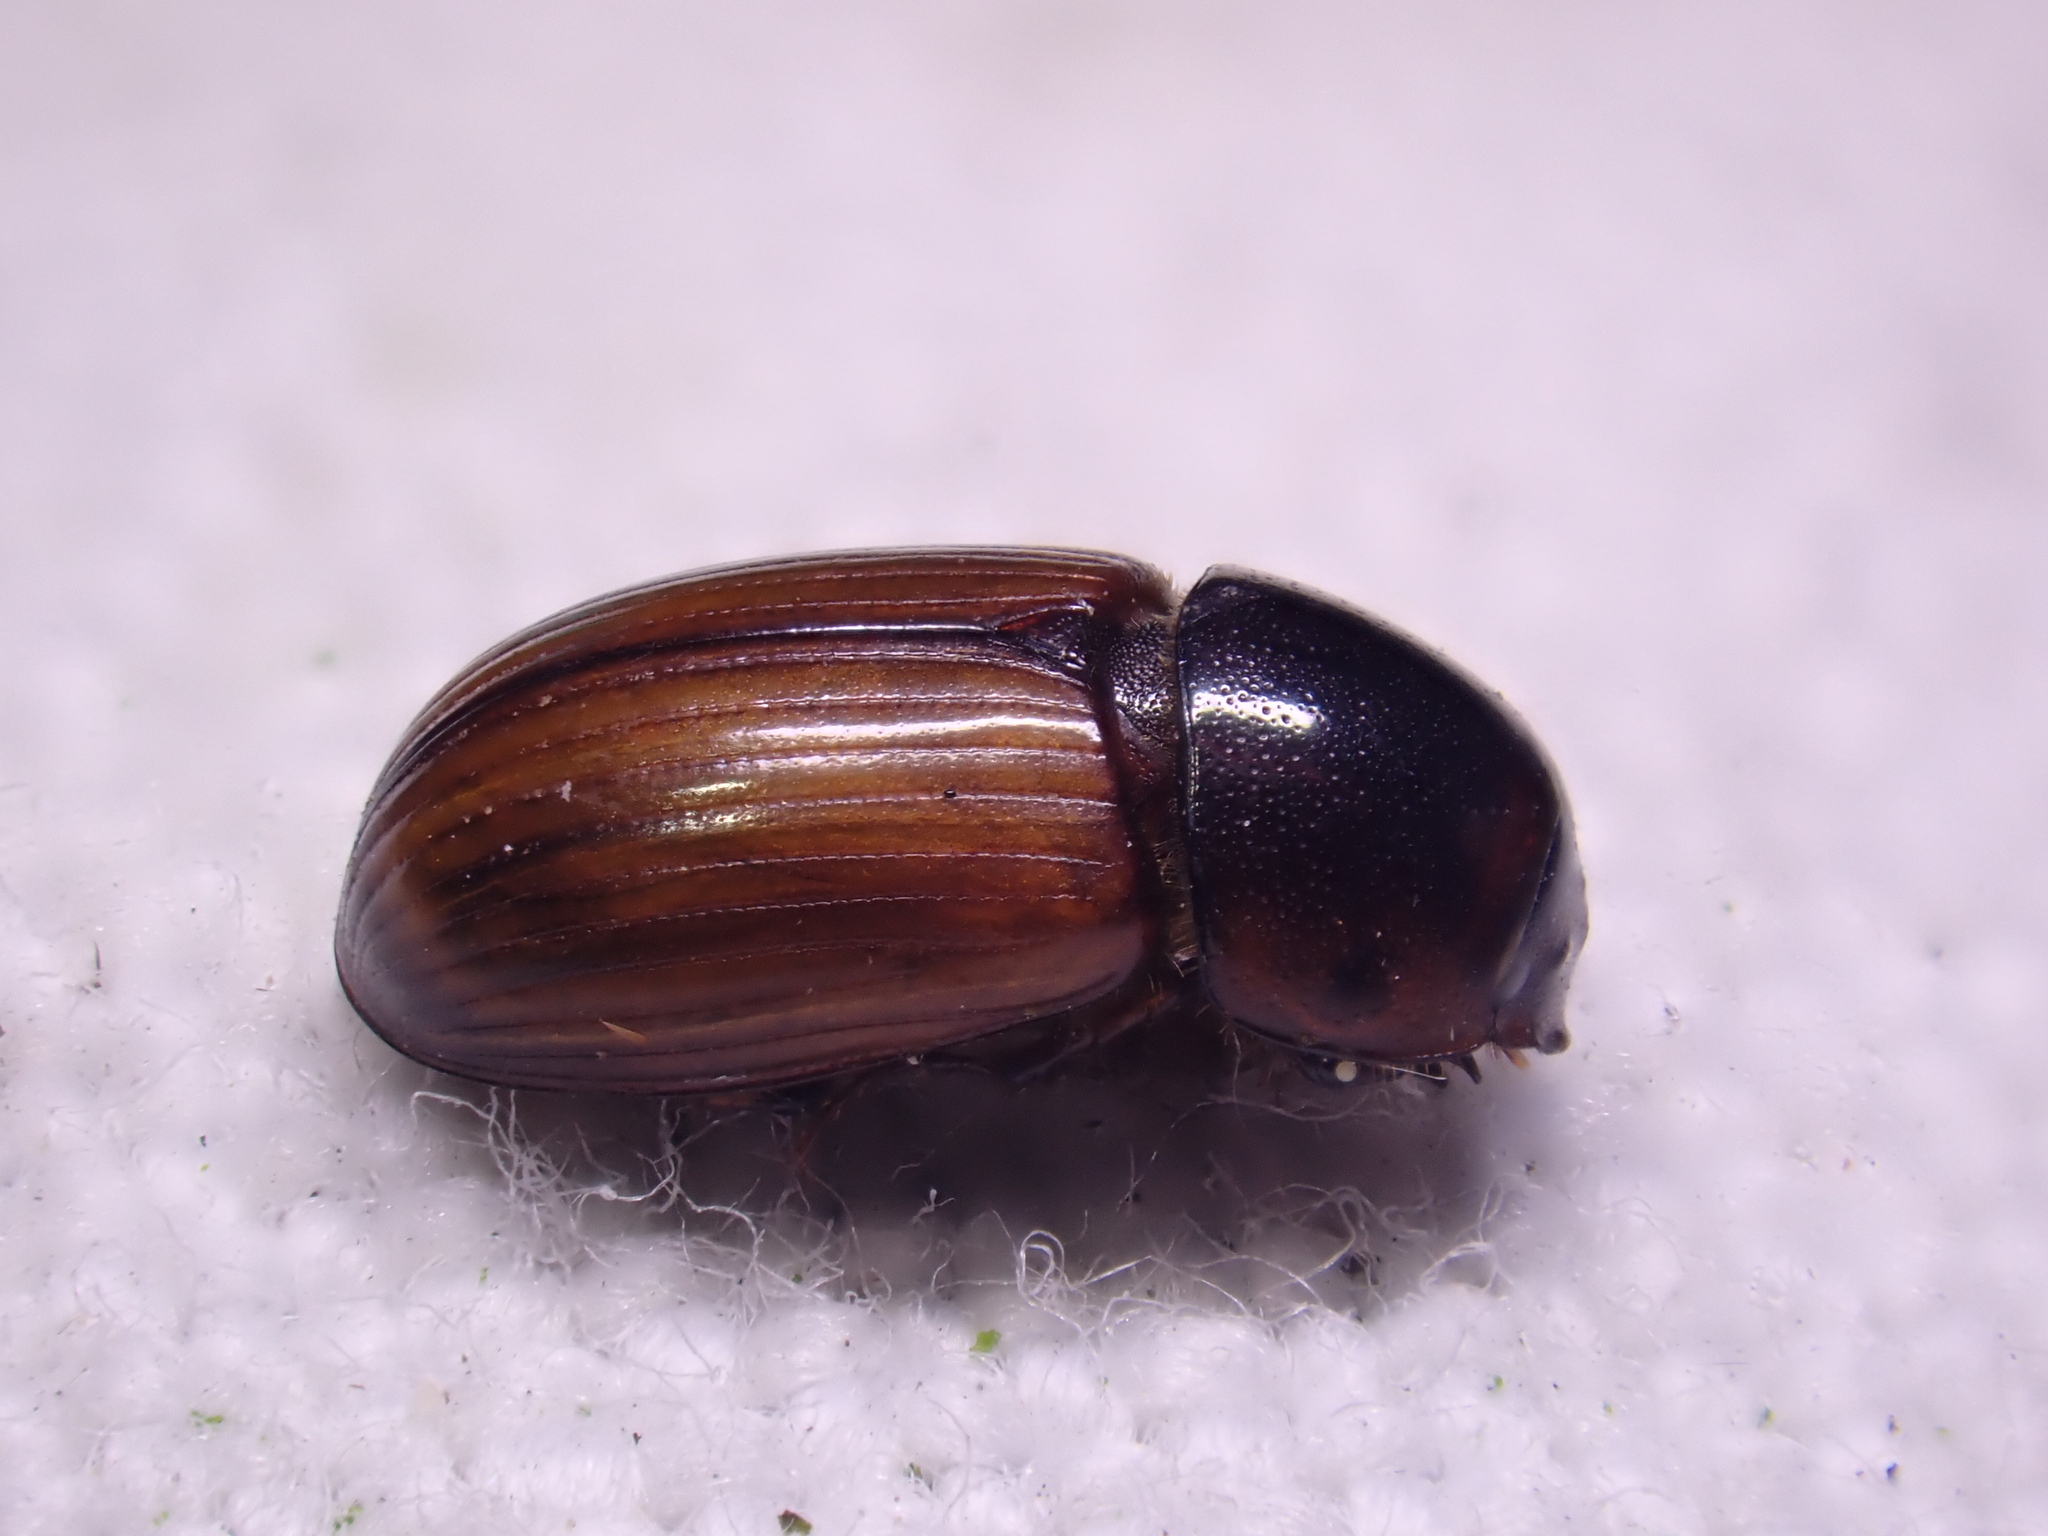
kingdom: Animalia
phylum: Arthropoda
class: Insecta
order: Coleoptera
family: Scarabaeidae
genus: Bodilopsis
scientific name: Bodilopsis rufus
